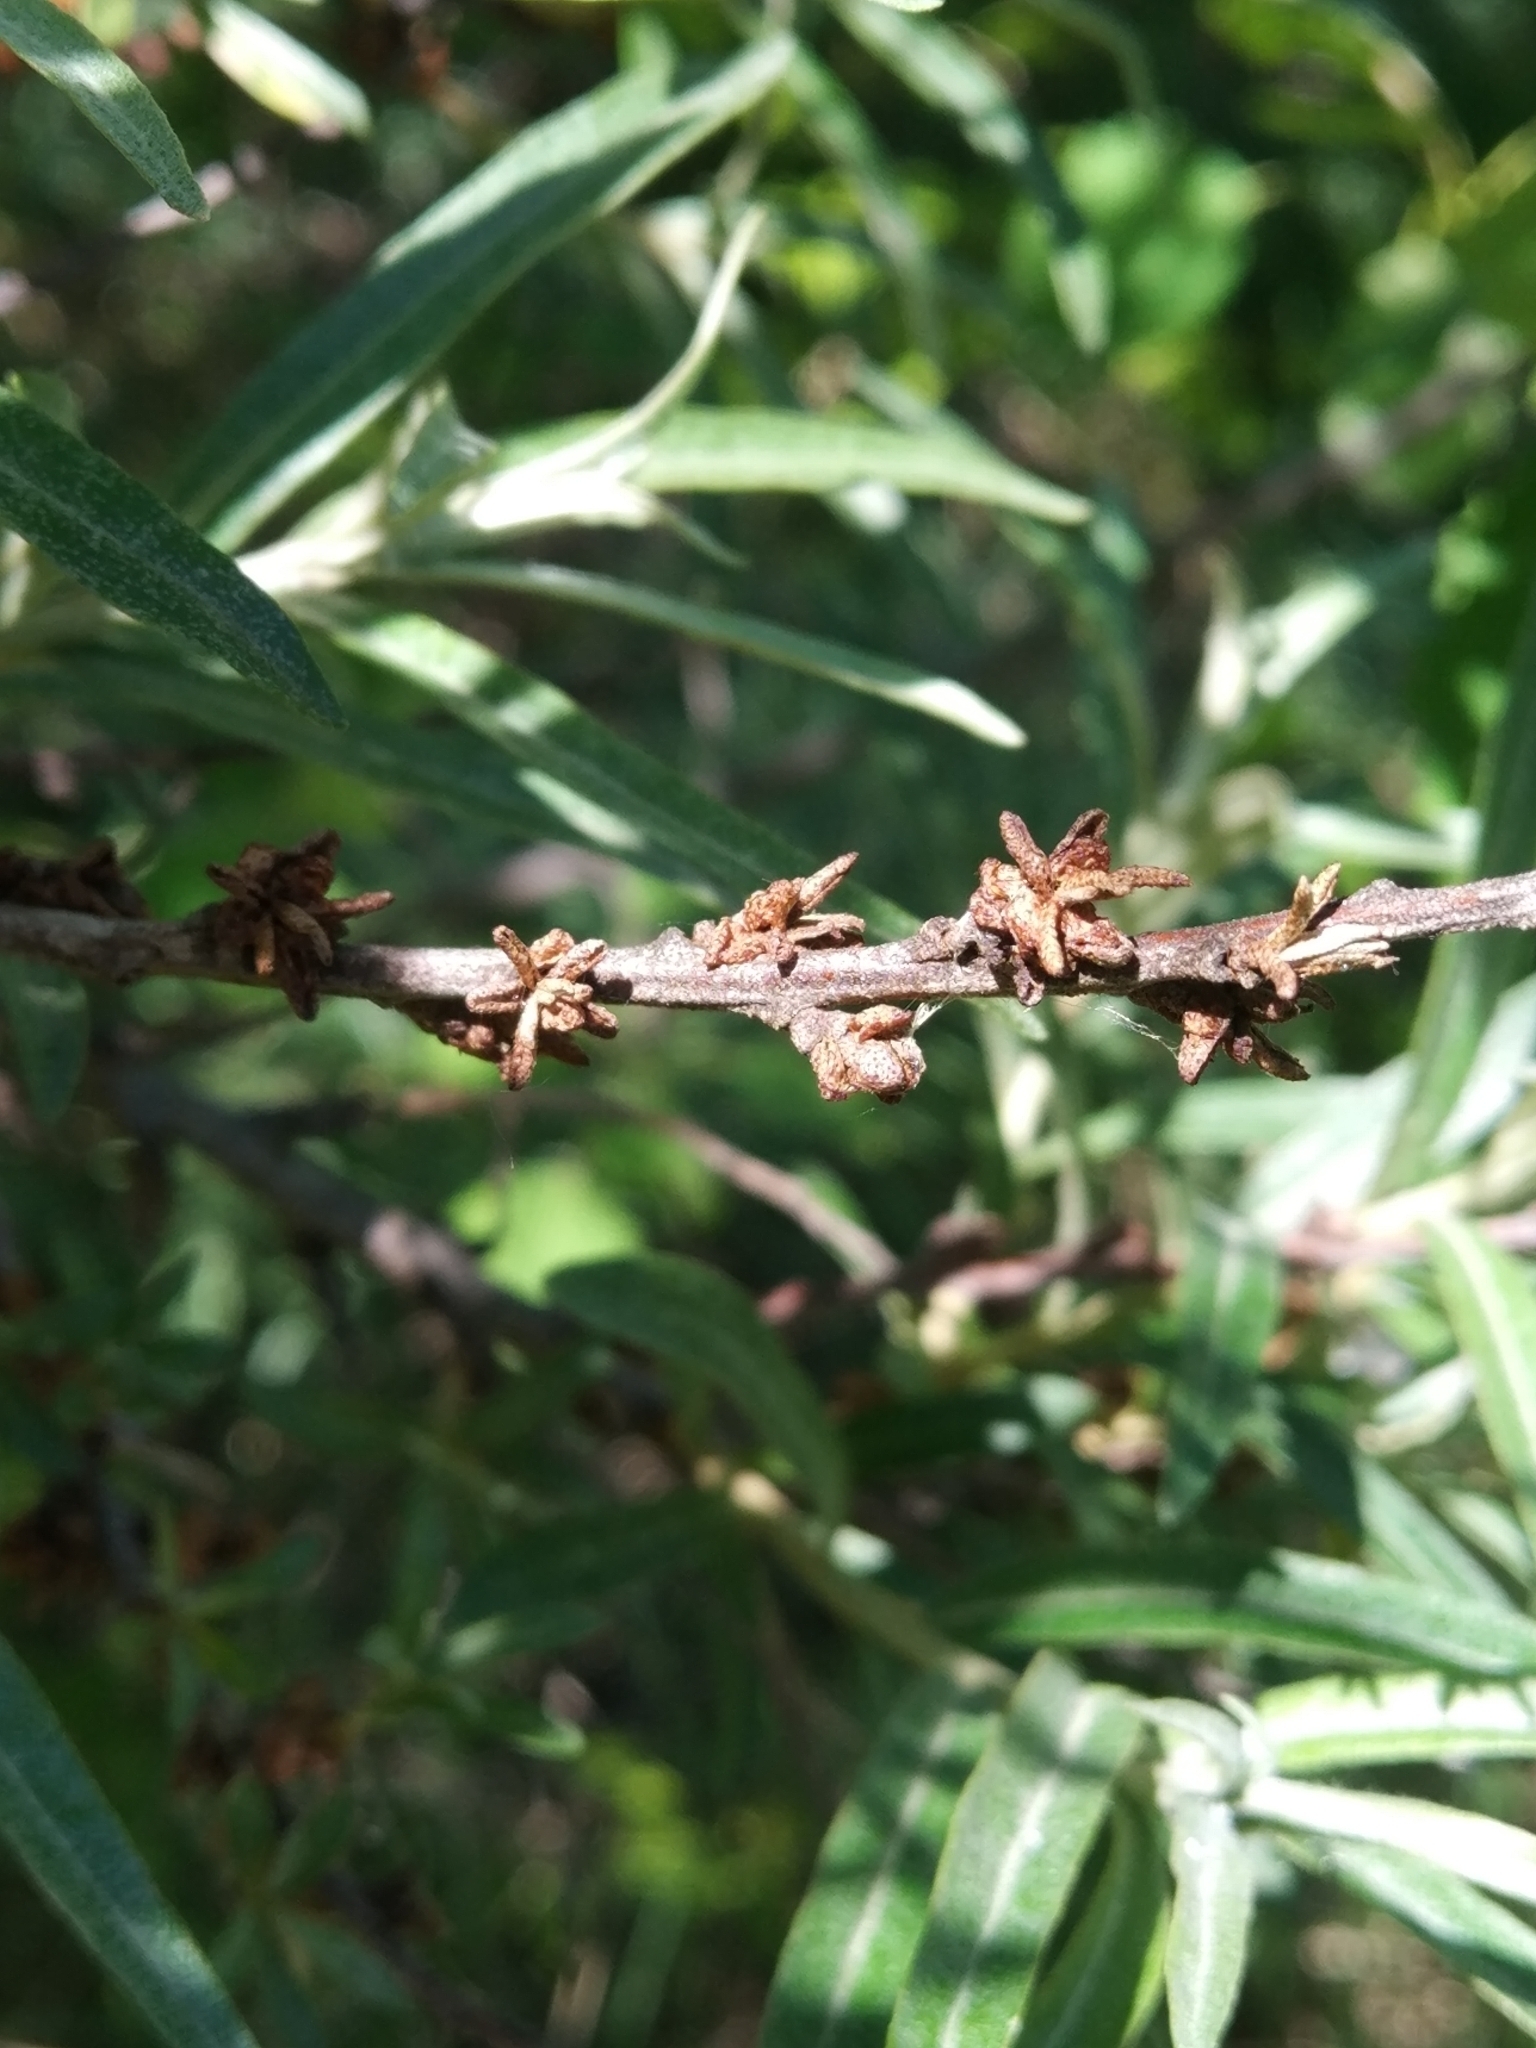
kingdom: Plantae
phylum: Tracheophyta
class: Magnoliopsida
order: Rosales
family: Elaeagnaceae
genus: Hippophae
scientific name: Hippophae rhamnoides
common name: Sea-buckthorn
